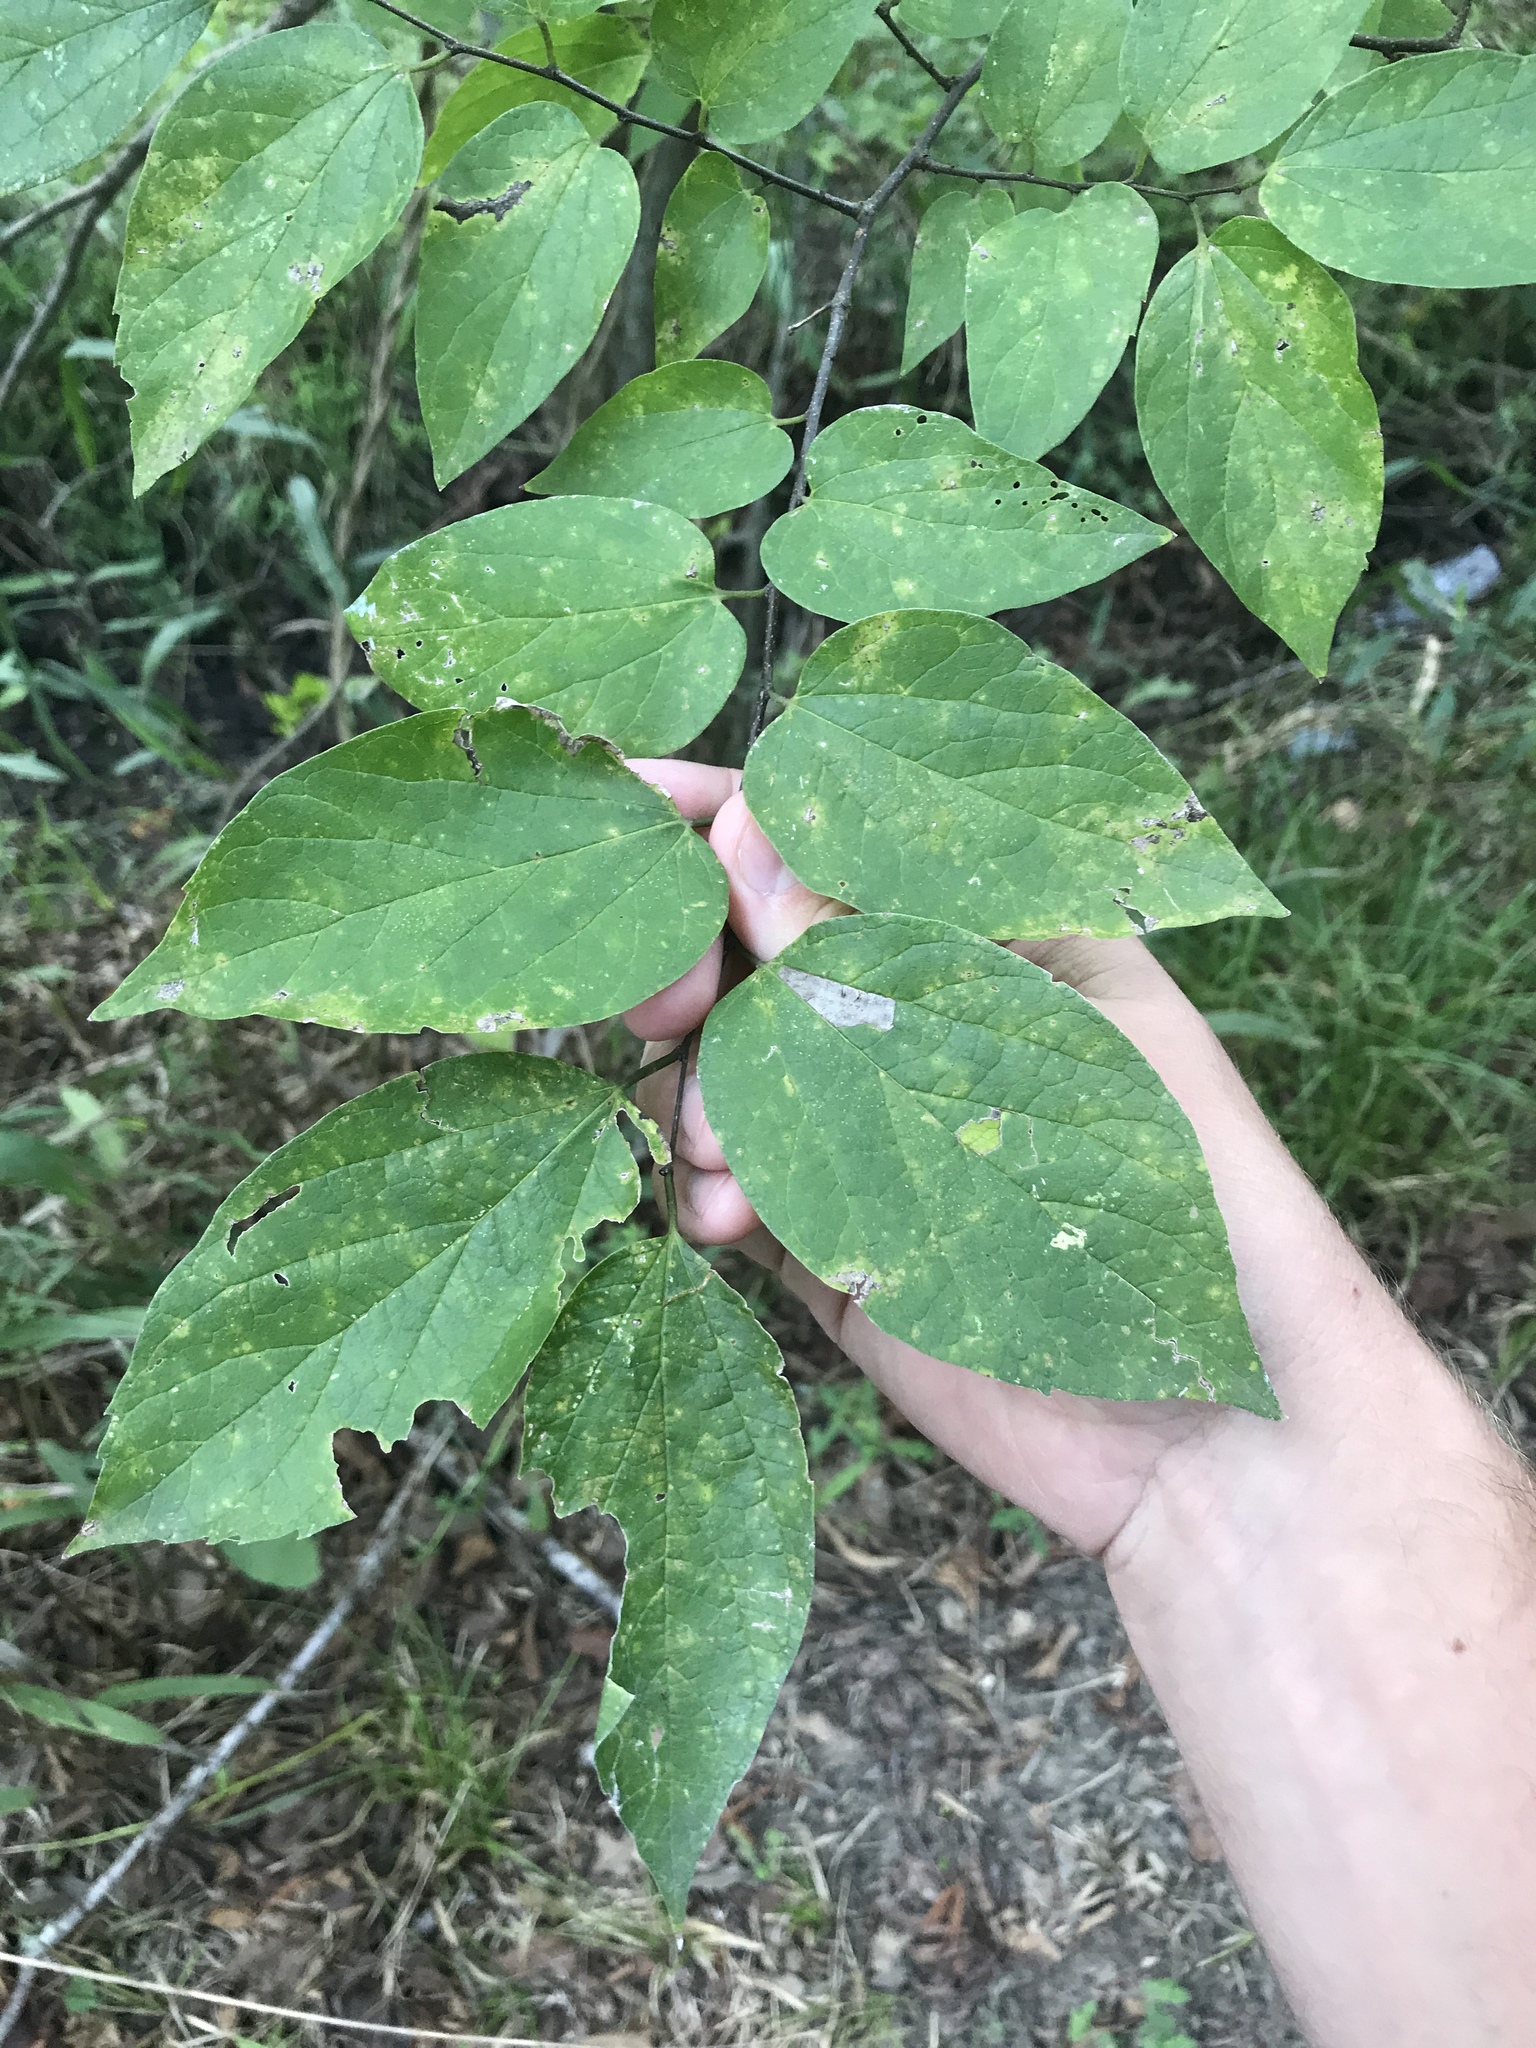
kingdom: Plantae
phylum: Tracheophyta
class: Magnoliopsida
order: Rosales
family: Cannabaceae
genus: Celtis
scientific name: Celtis laevigata
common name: Sugarberry
